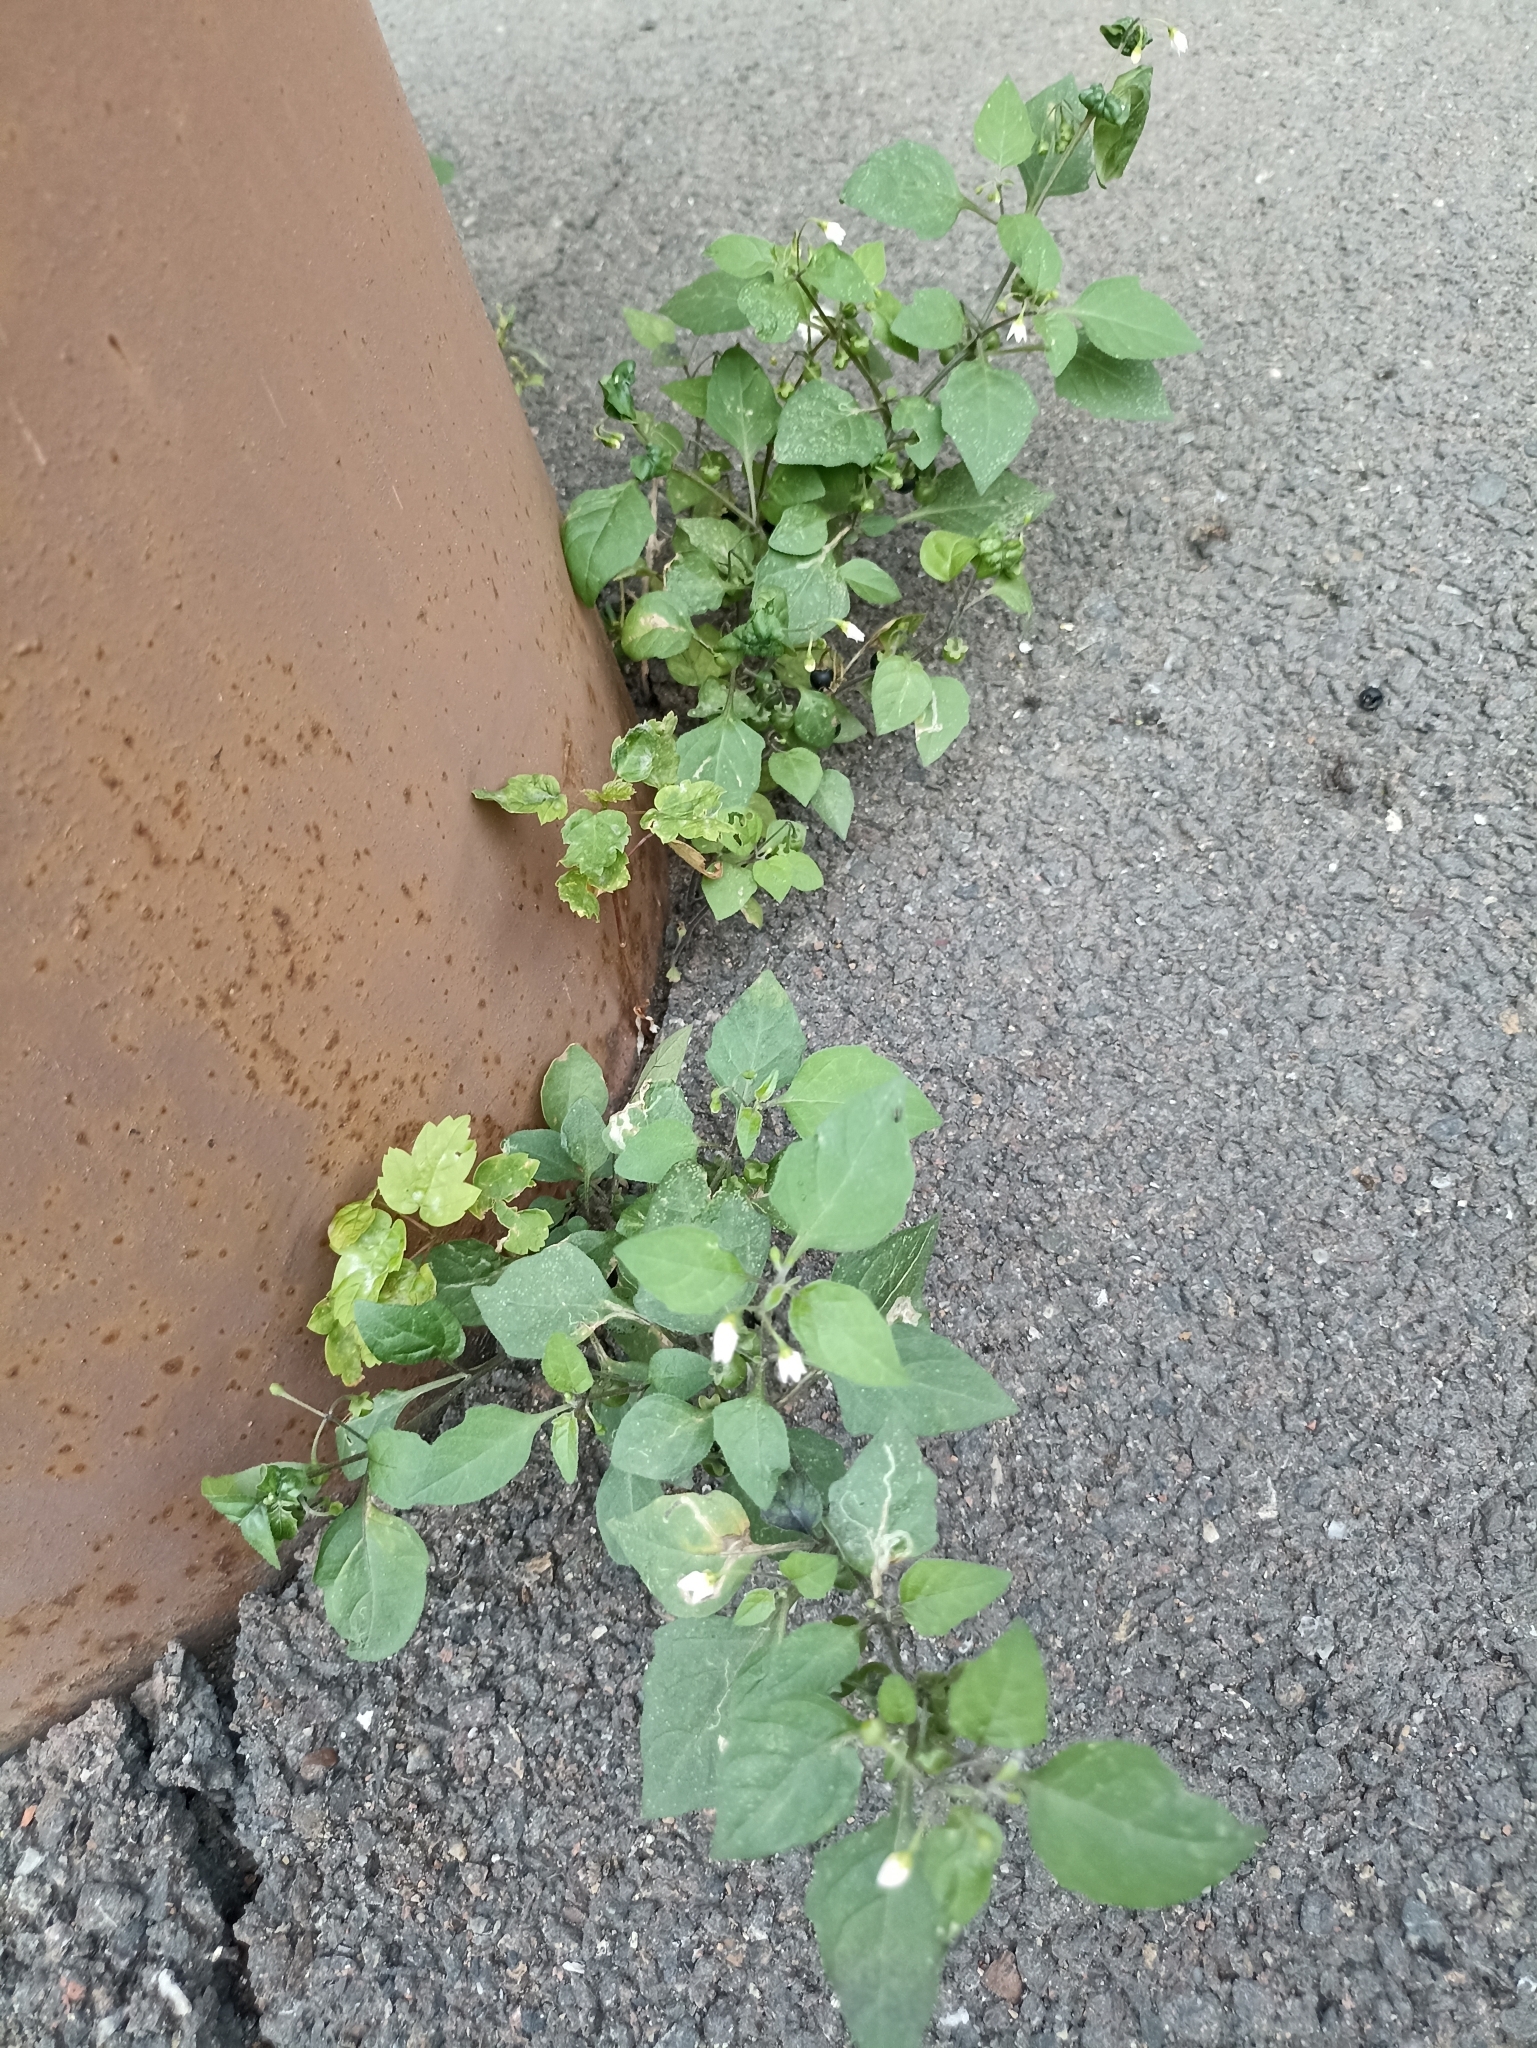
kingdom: Plantae
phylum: Tracheophyta
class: Magnoliopsida
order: Solanales
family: Solanaceae
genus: Solanum
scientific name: Solanum nigrum
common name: Black nightshade
